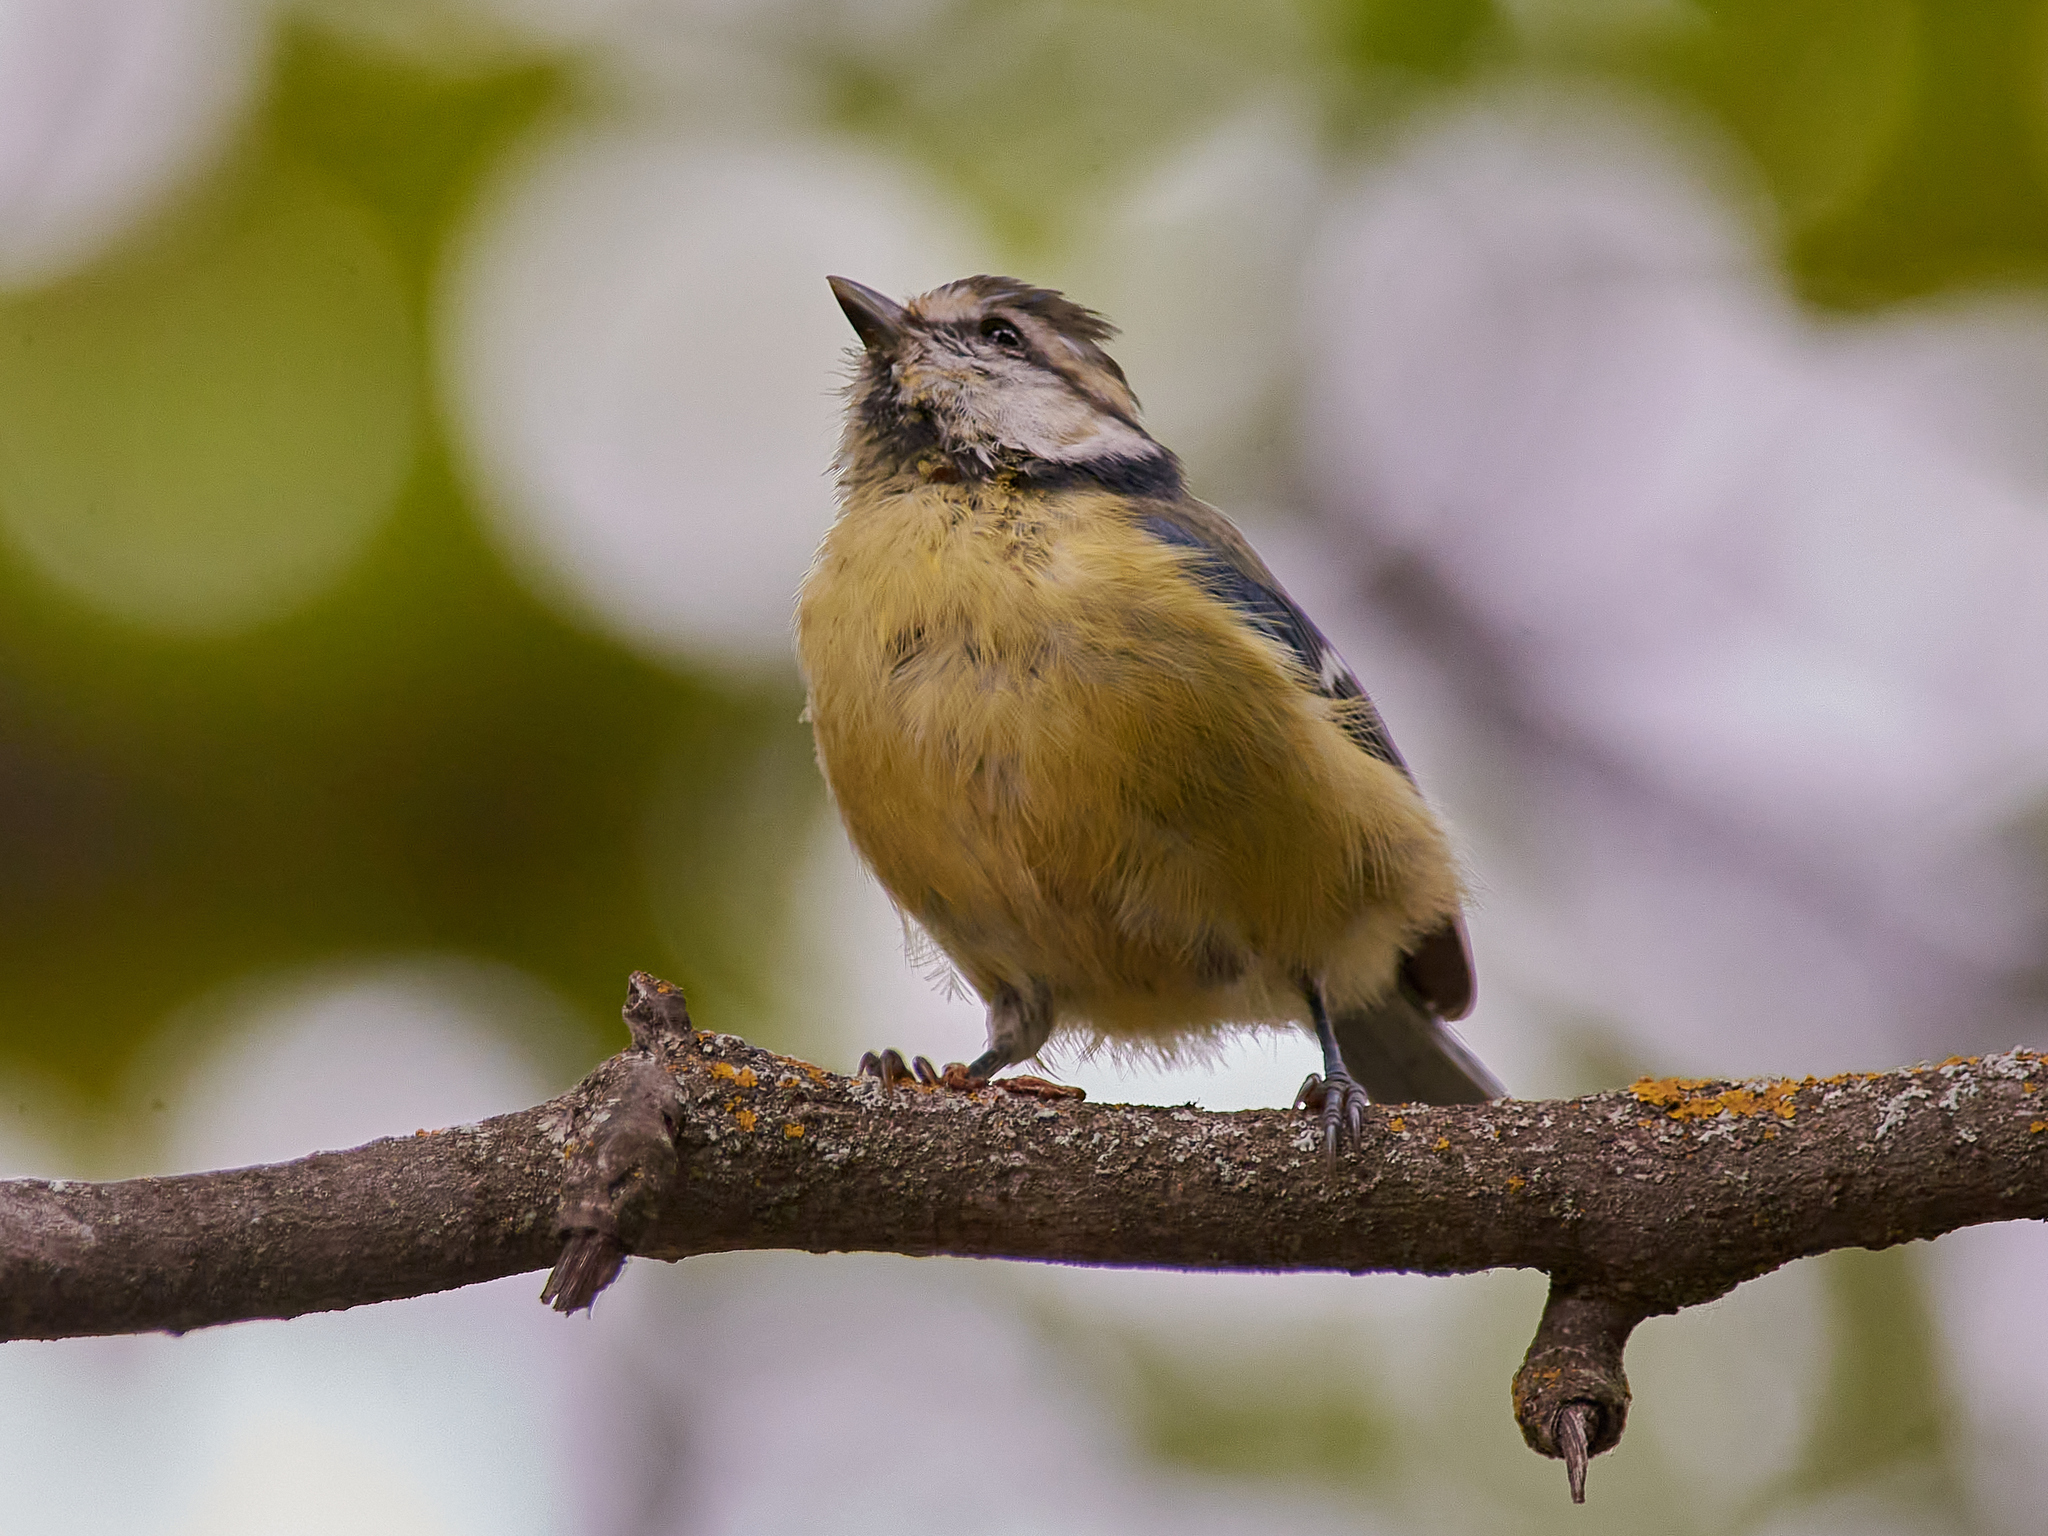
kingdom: Animalia
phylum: Chordata
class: Aves
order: Passeriformes
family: Paridae
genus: Cyanistes
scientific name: Cyanistes caeruleus
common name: Eurasian blue tit
